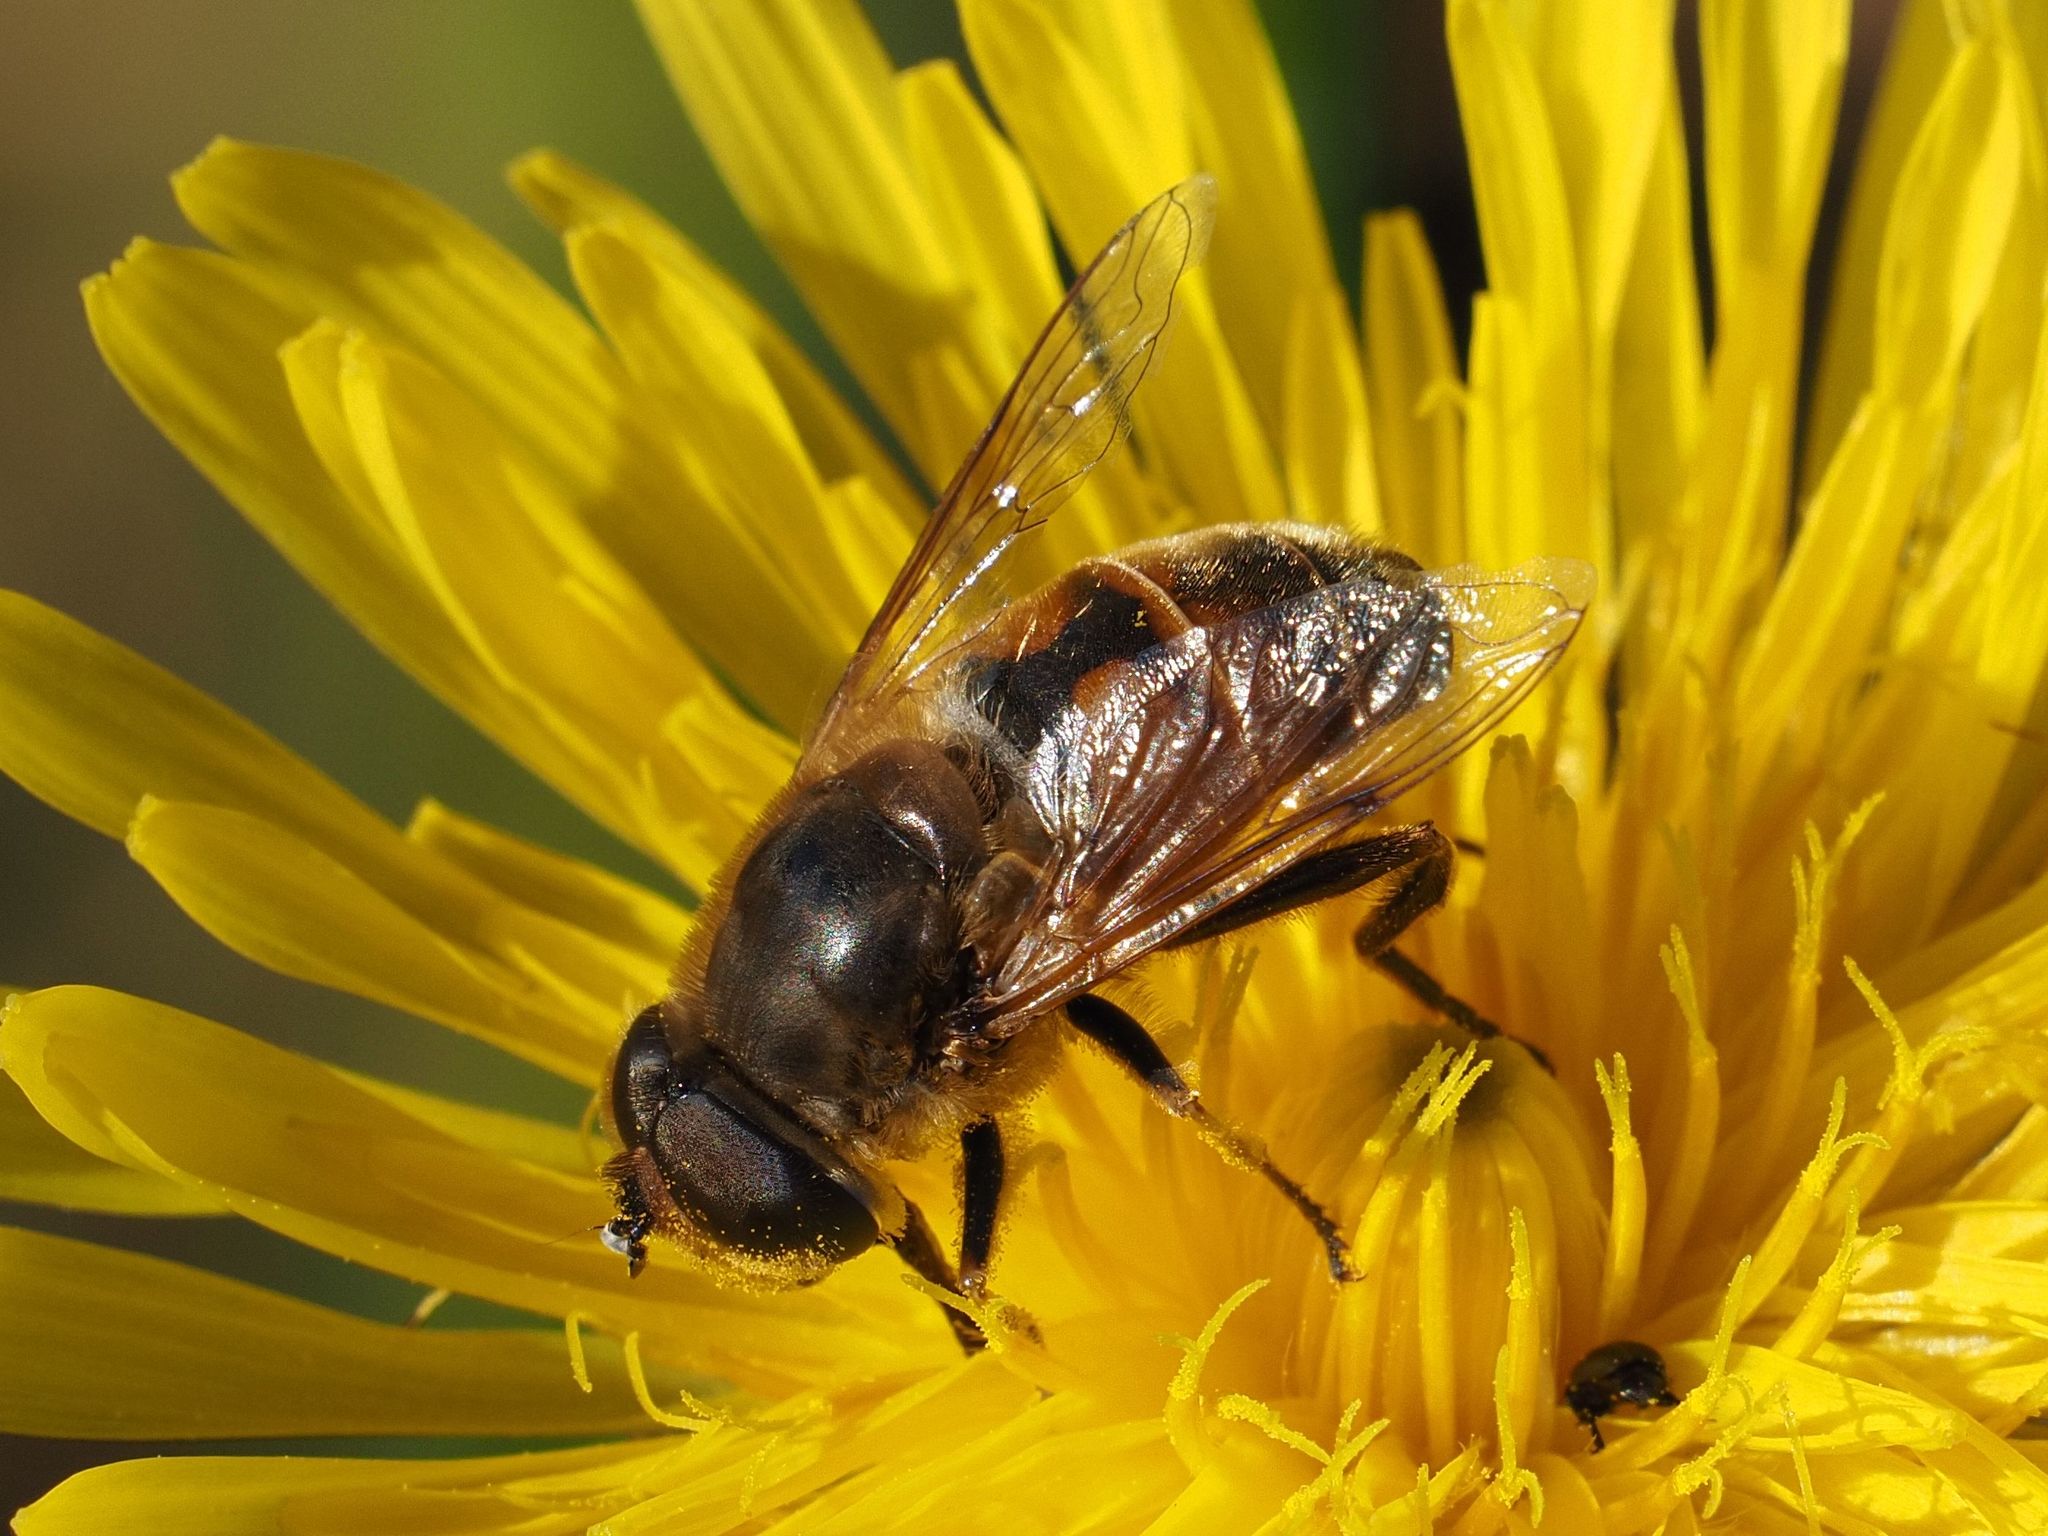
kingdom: Animalia
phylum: Arthropoda
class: Insecta
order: Diptera
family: Syrphidae
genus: Eristalis
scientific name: Eristalis tenax
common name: Drone fly
